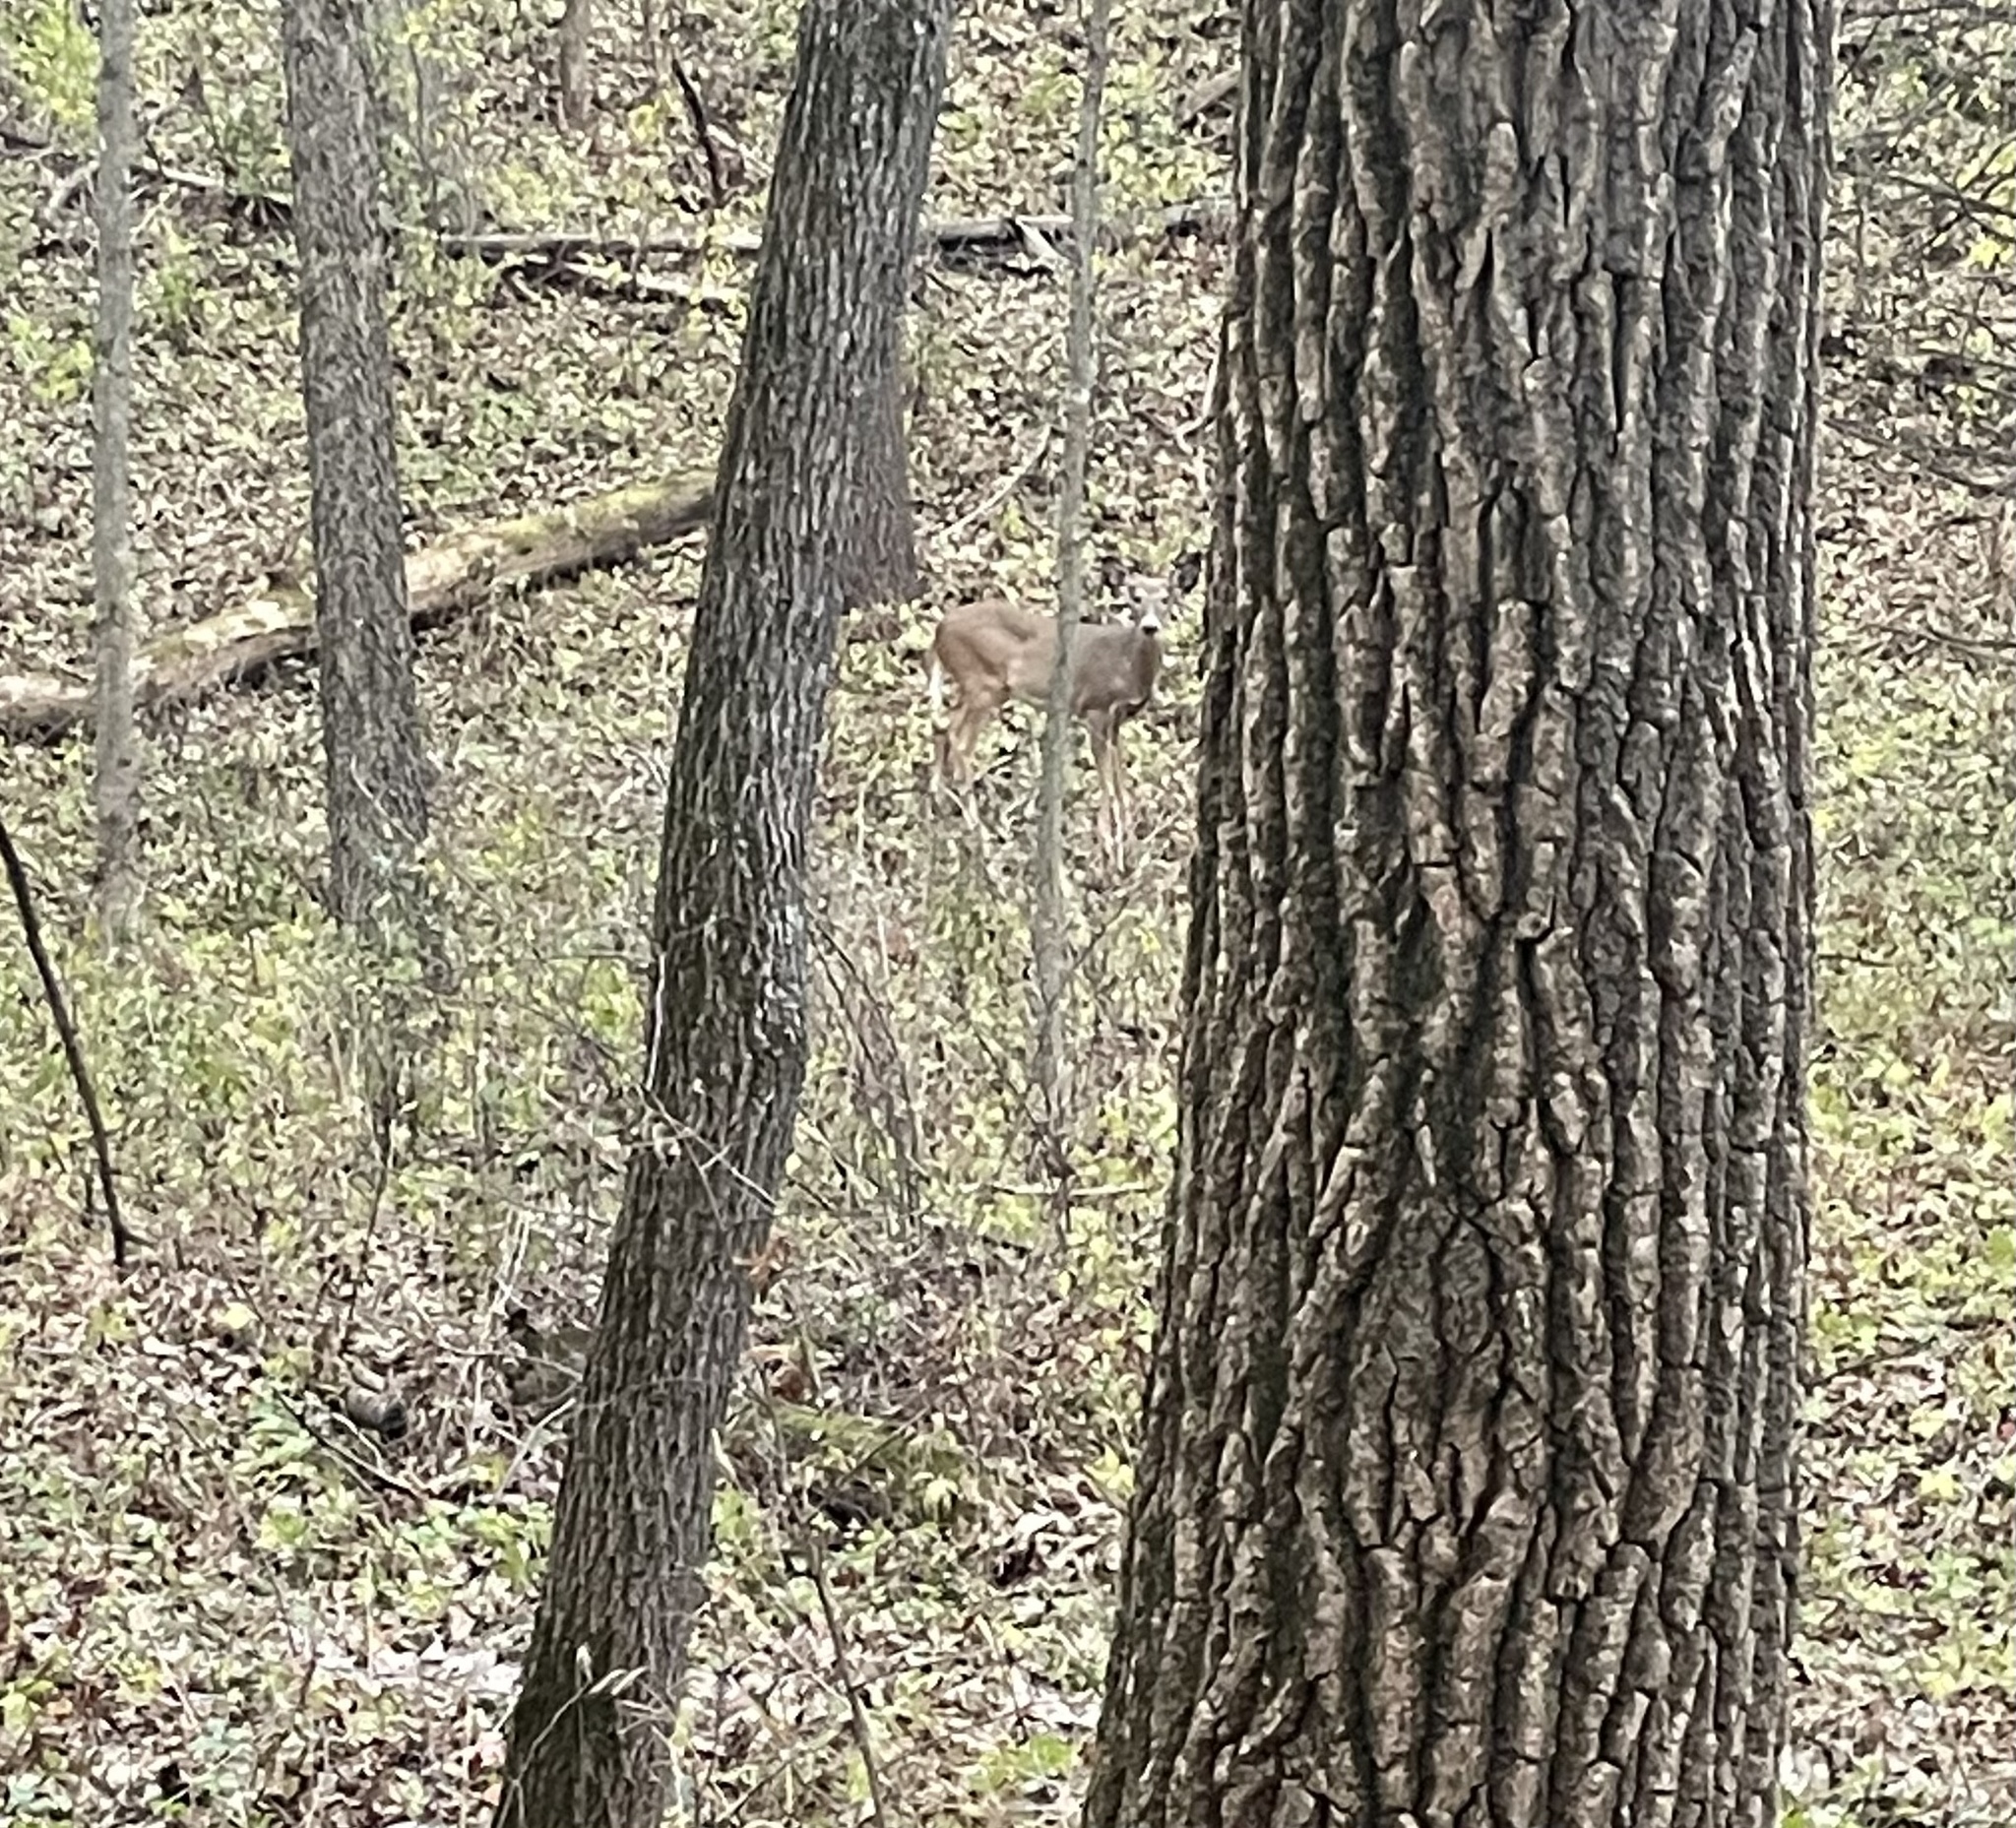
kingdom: Animalia
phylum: Chordata
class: Mammalia
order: Artiodactyla
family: Cervidae
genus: Odocoileus
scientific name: Odocoileus virginianus
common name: White-tailed deer
